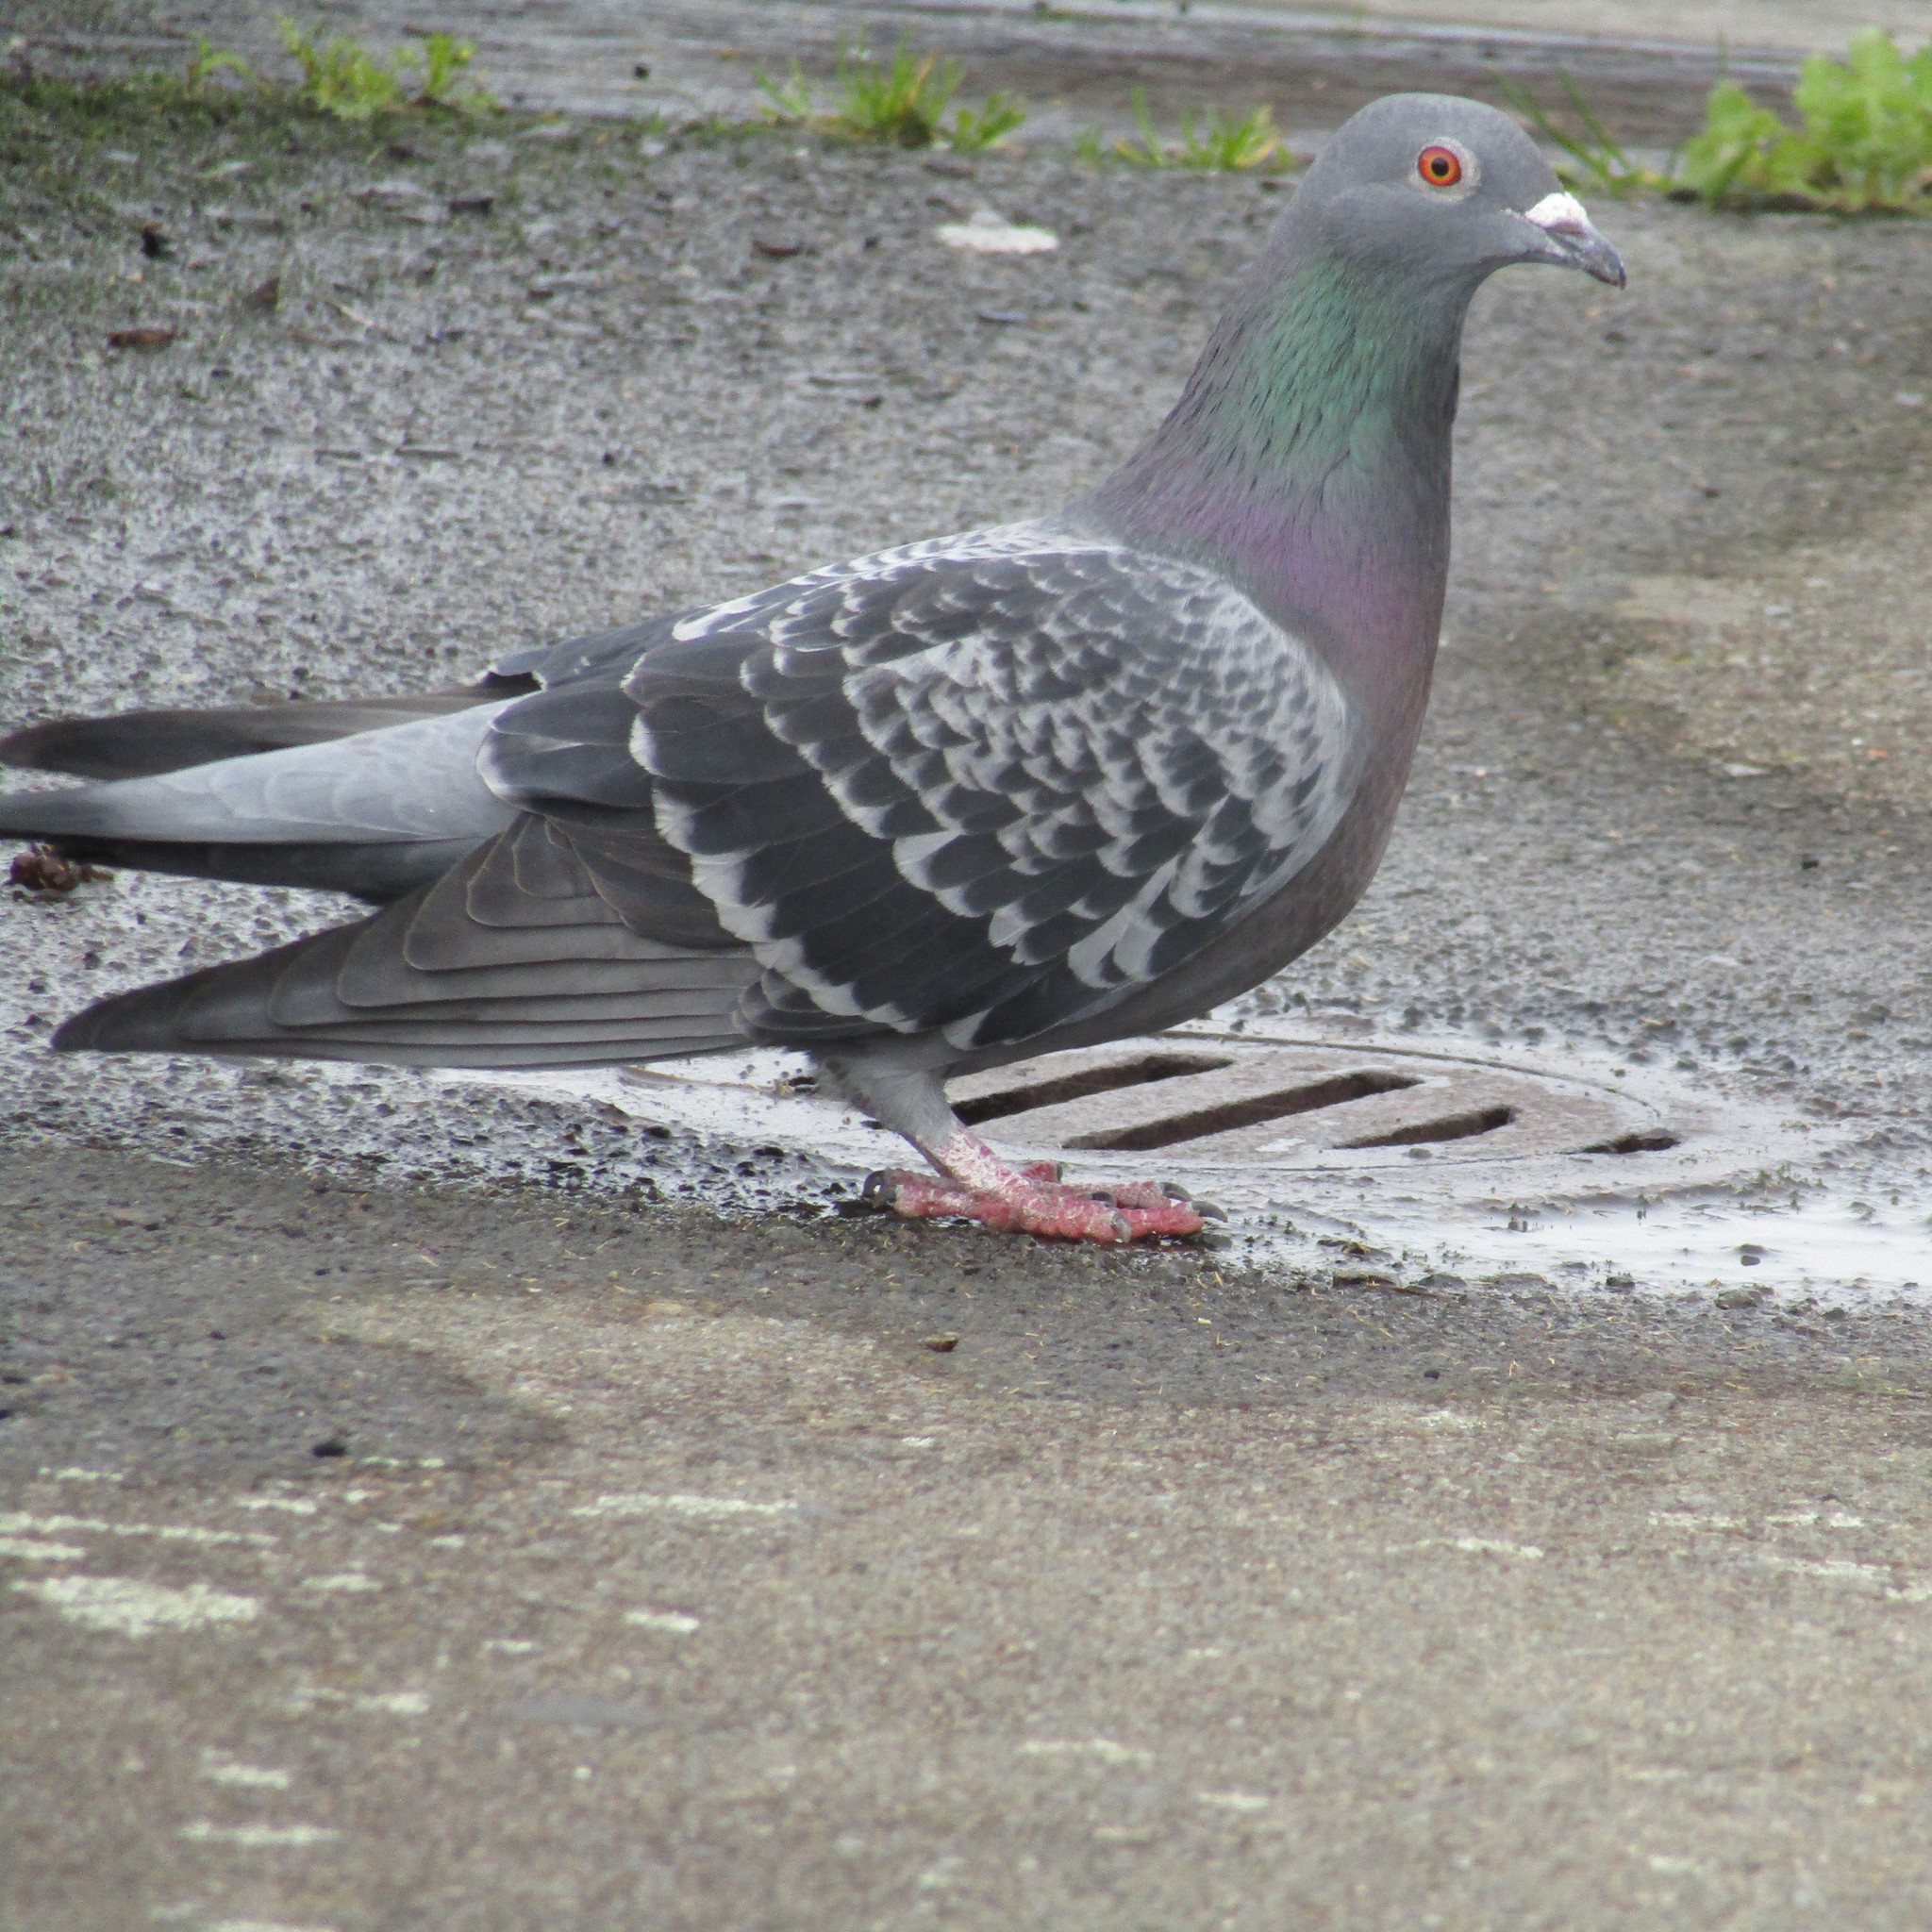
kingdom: Animalia
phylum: Chordata
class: Aves
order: Columbiformes
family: Columbidae
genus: Columba
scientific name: Columba livia
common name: Rock pigeon
